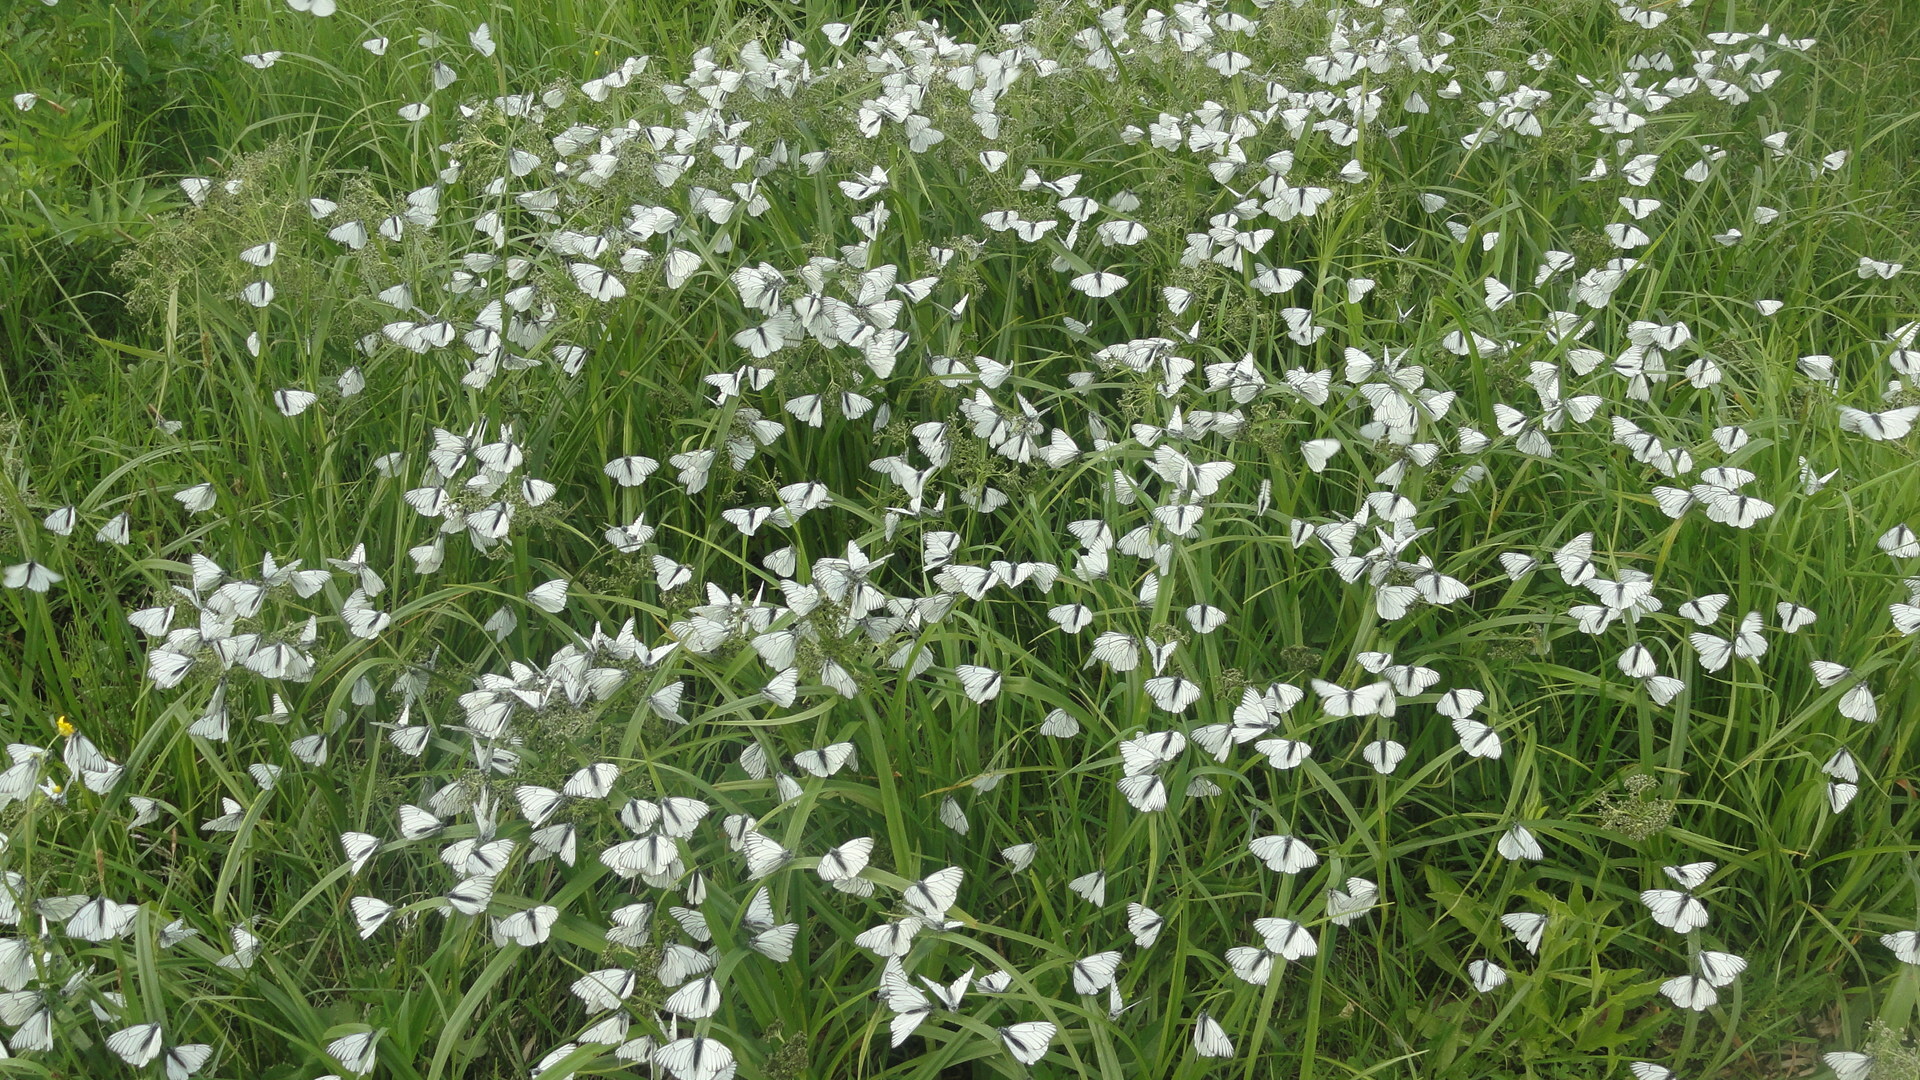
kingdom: Animalia
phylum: Arthropoda
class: Insecta
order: Lepidoptera
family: Pieridae
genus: Aporia
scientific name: Aporia crataegi
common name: Black-veined white
